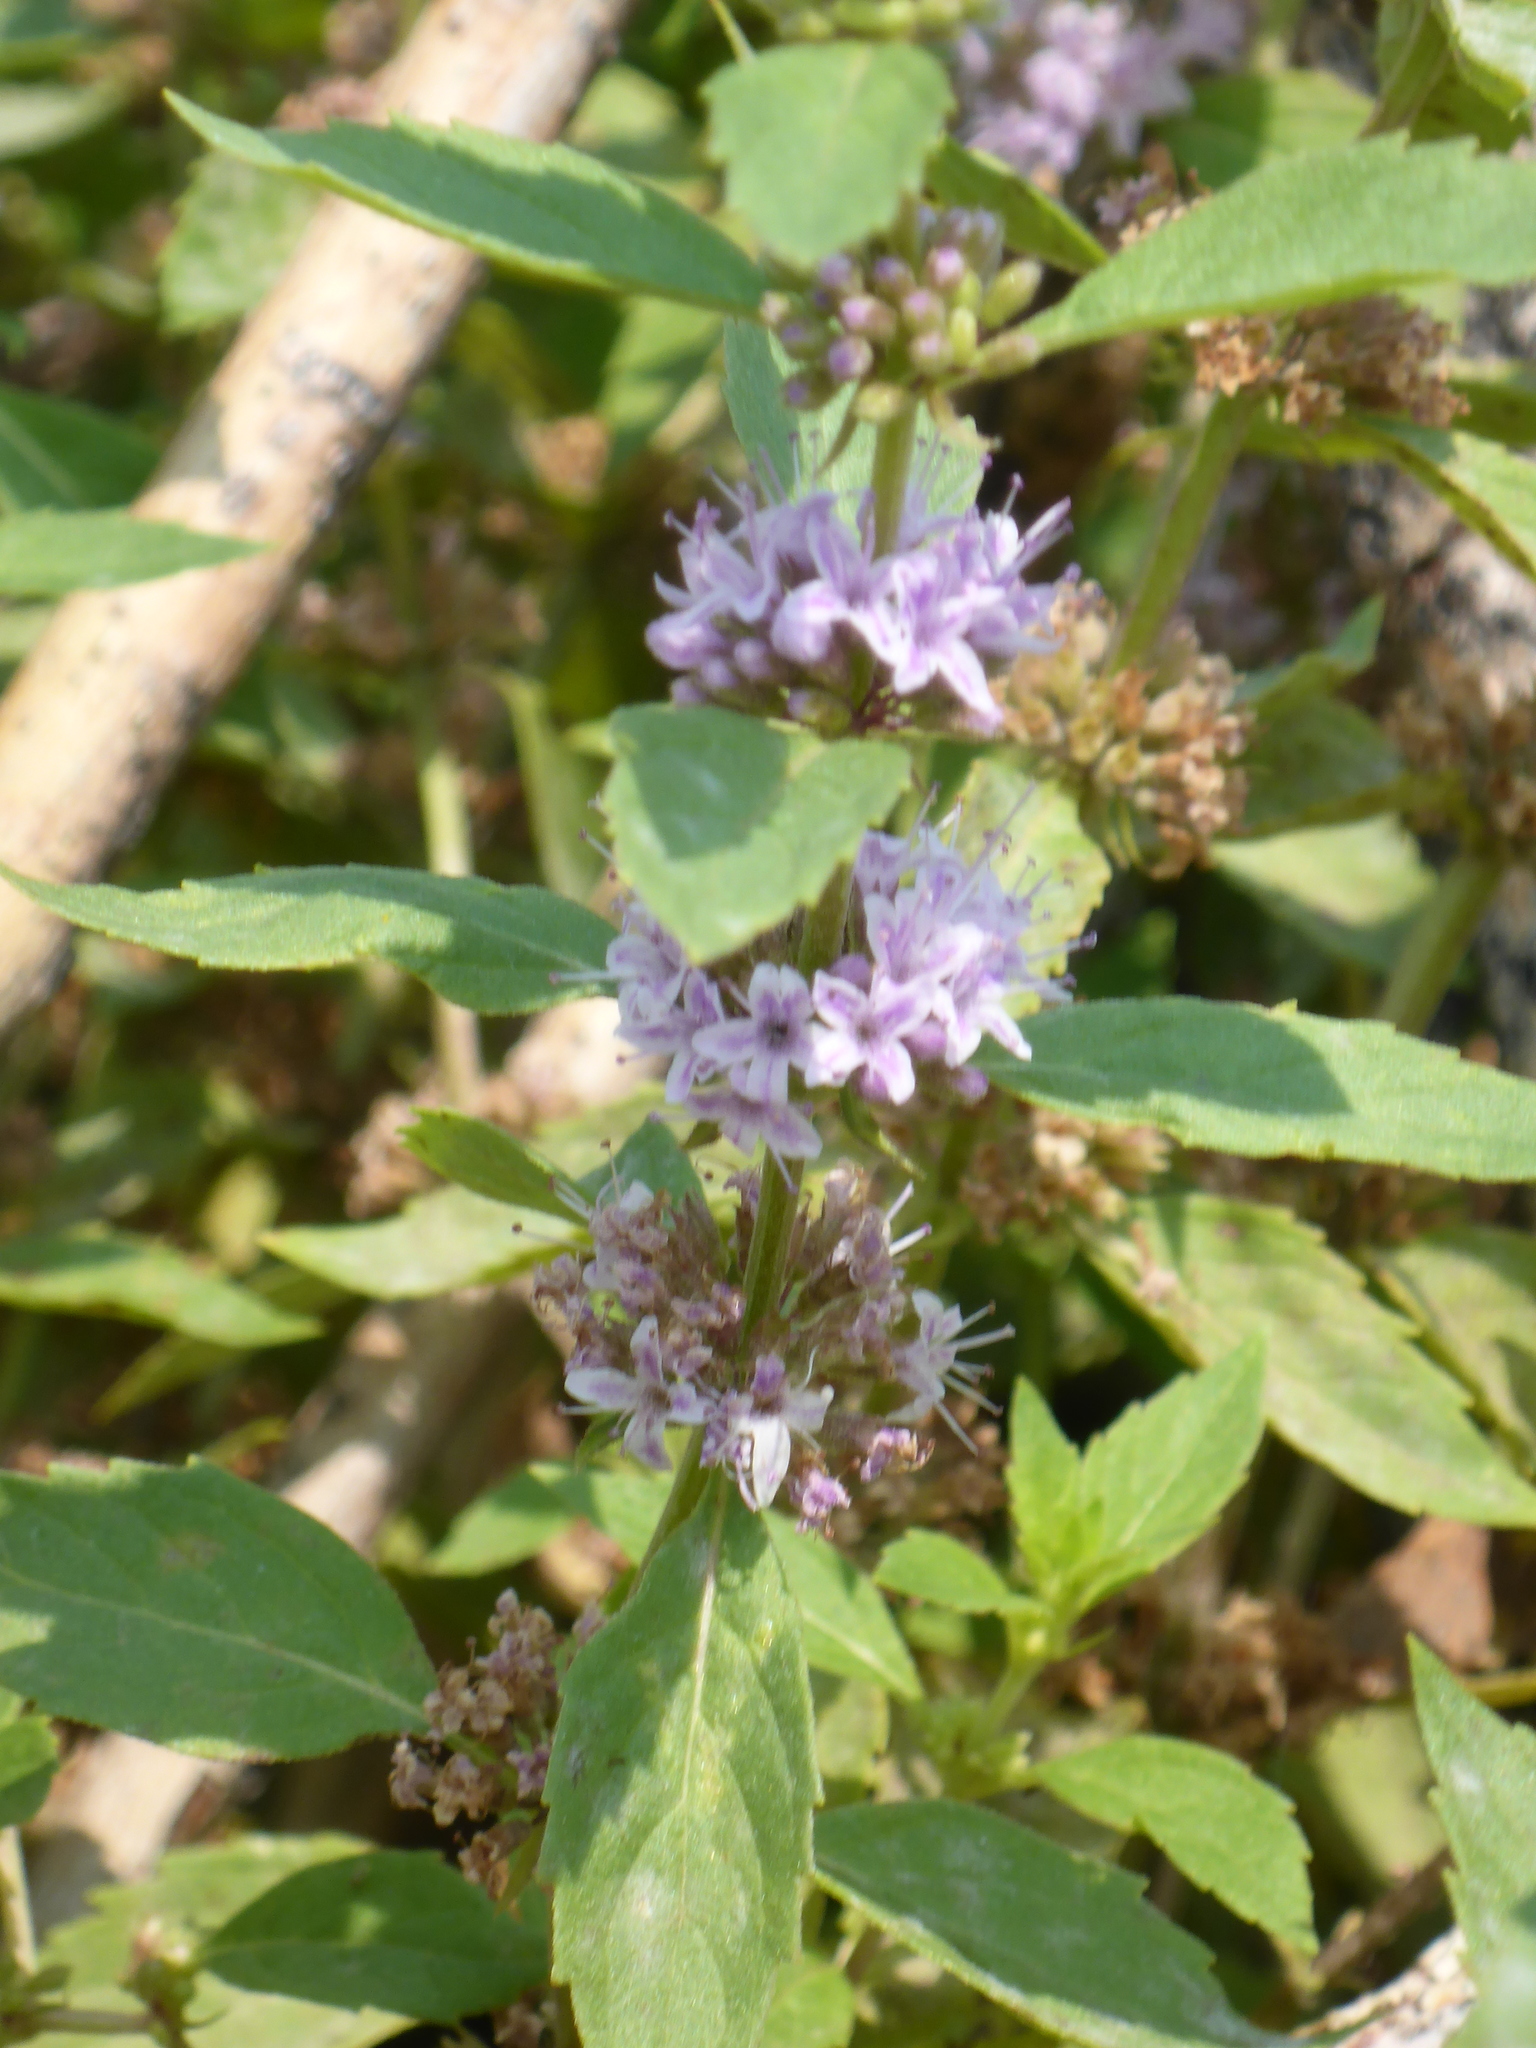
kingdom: Plantae
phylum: Tracheophyta
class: Magnoliopsida
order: Lamiales
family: Lamiaceae
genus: Mentha
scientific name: Mentha canadensis
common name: American corn mint
